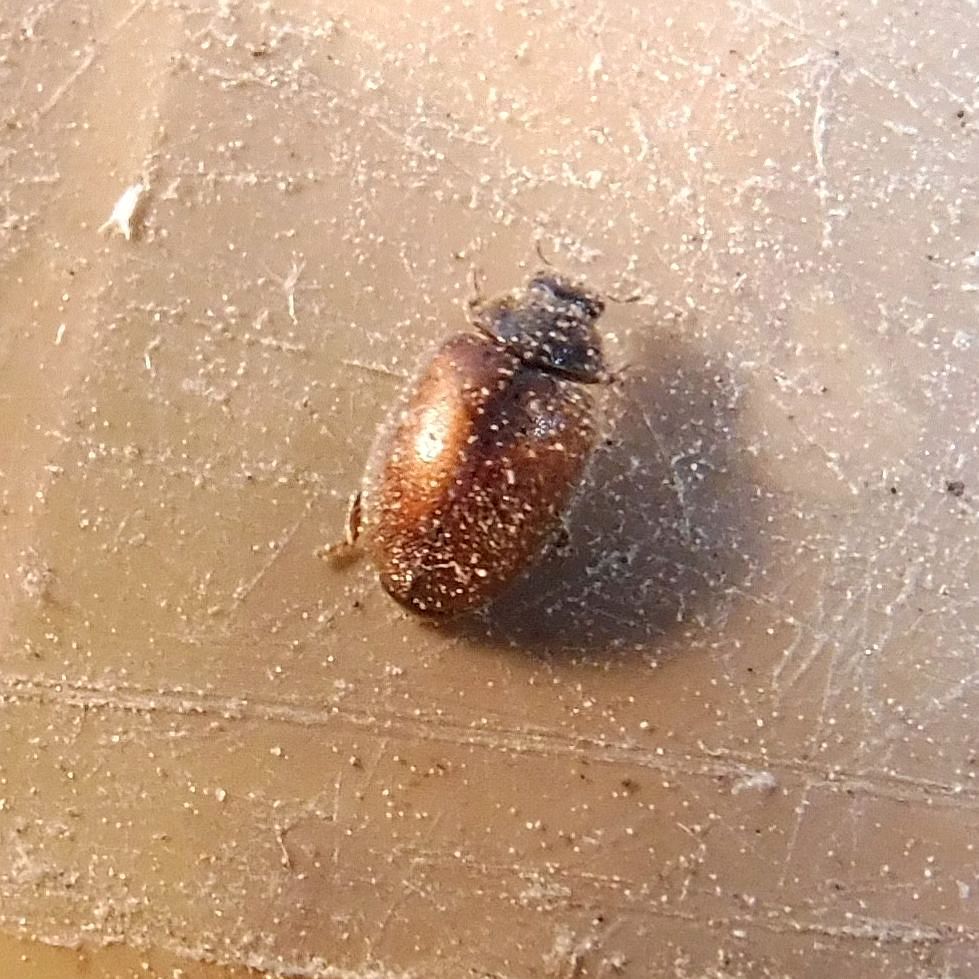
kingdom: Animalia
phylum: Arthropoda
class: Insecta
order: Coleoptera
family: Coccinellidae
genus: Scymnus
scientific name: Scymnus suturalis
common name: Ladybird beetle
